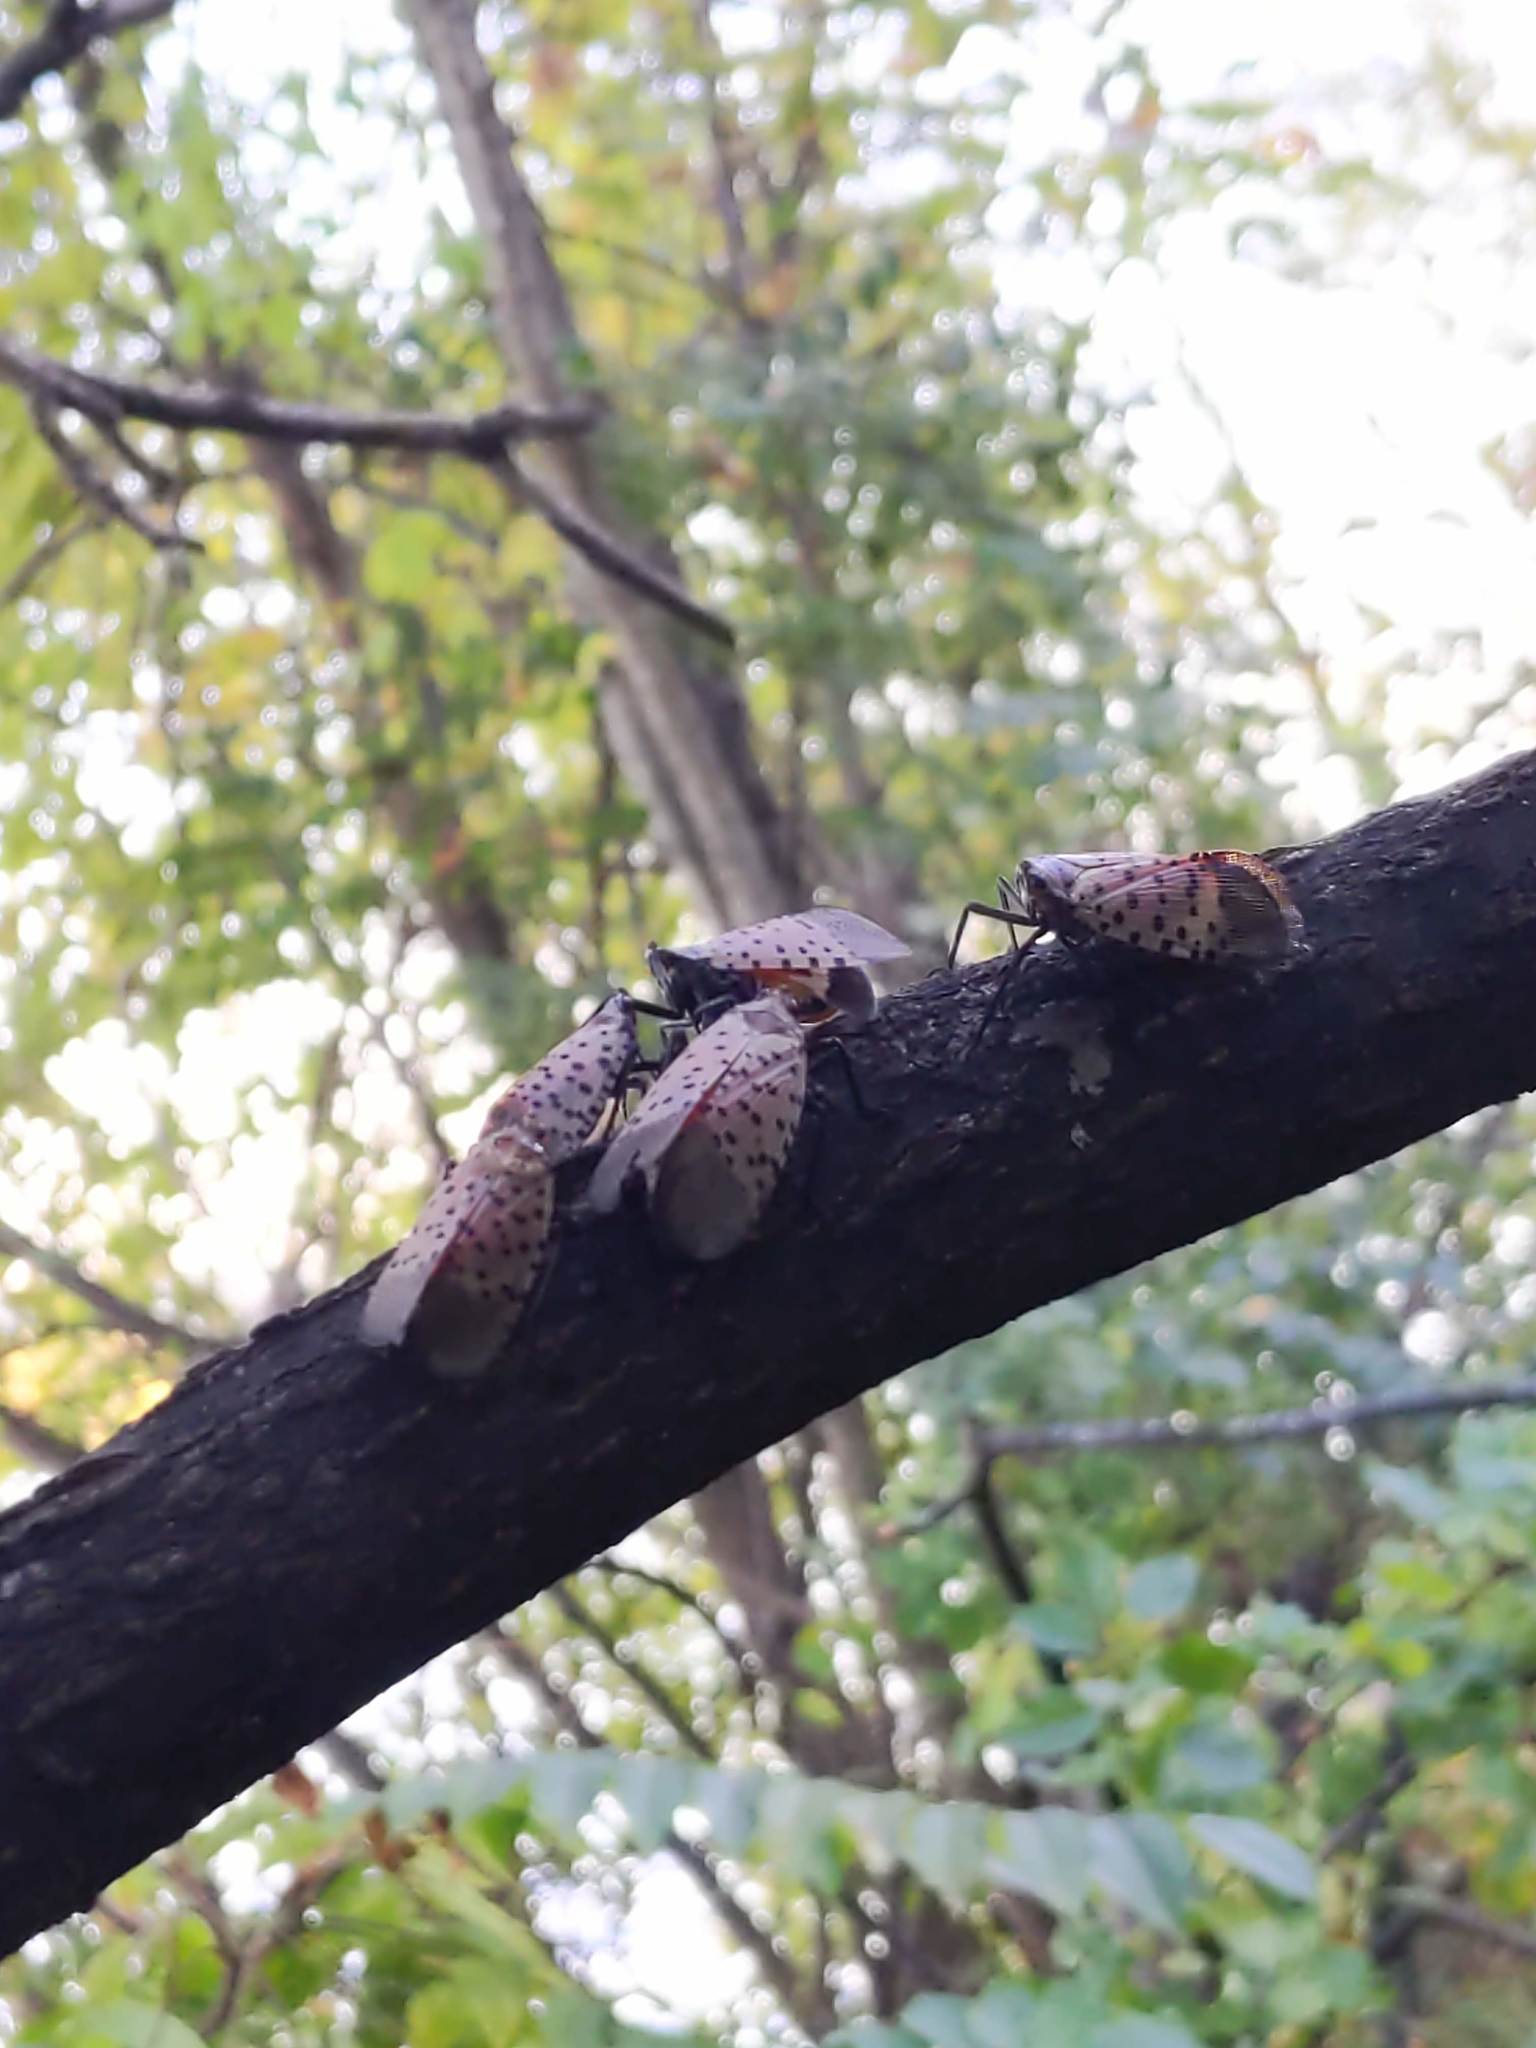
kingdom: Animalia
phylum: Arthropoda
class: Insecta
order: Hemiptera
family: Fulgoridae
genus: Lycorma
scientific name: Lycorma delicatula
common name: Spotted lanternfly
